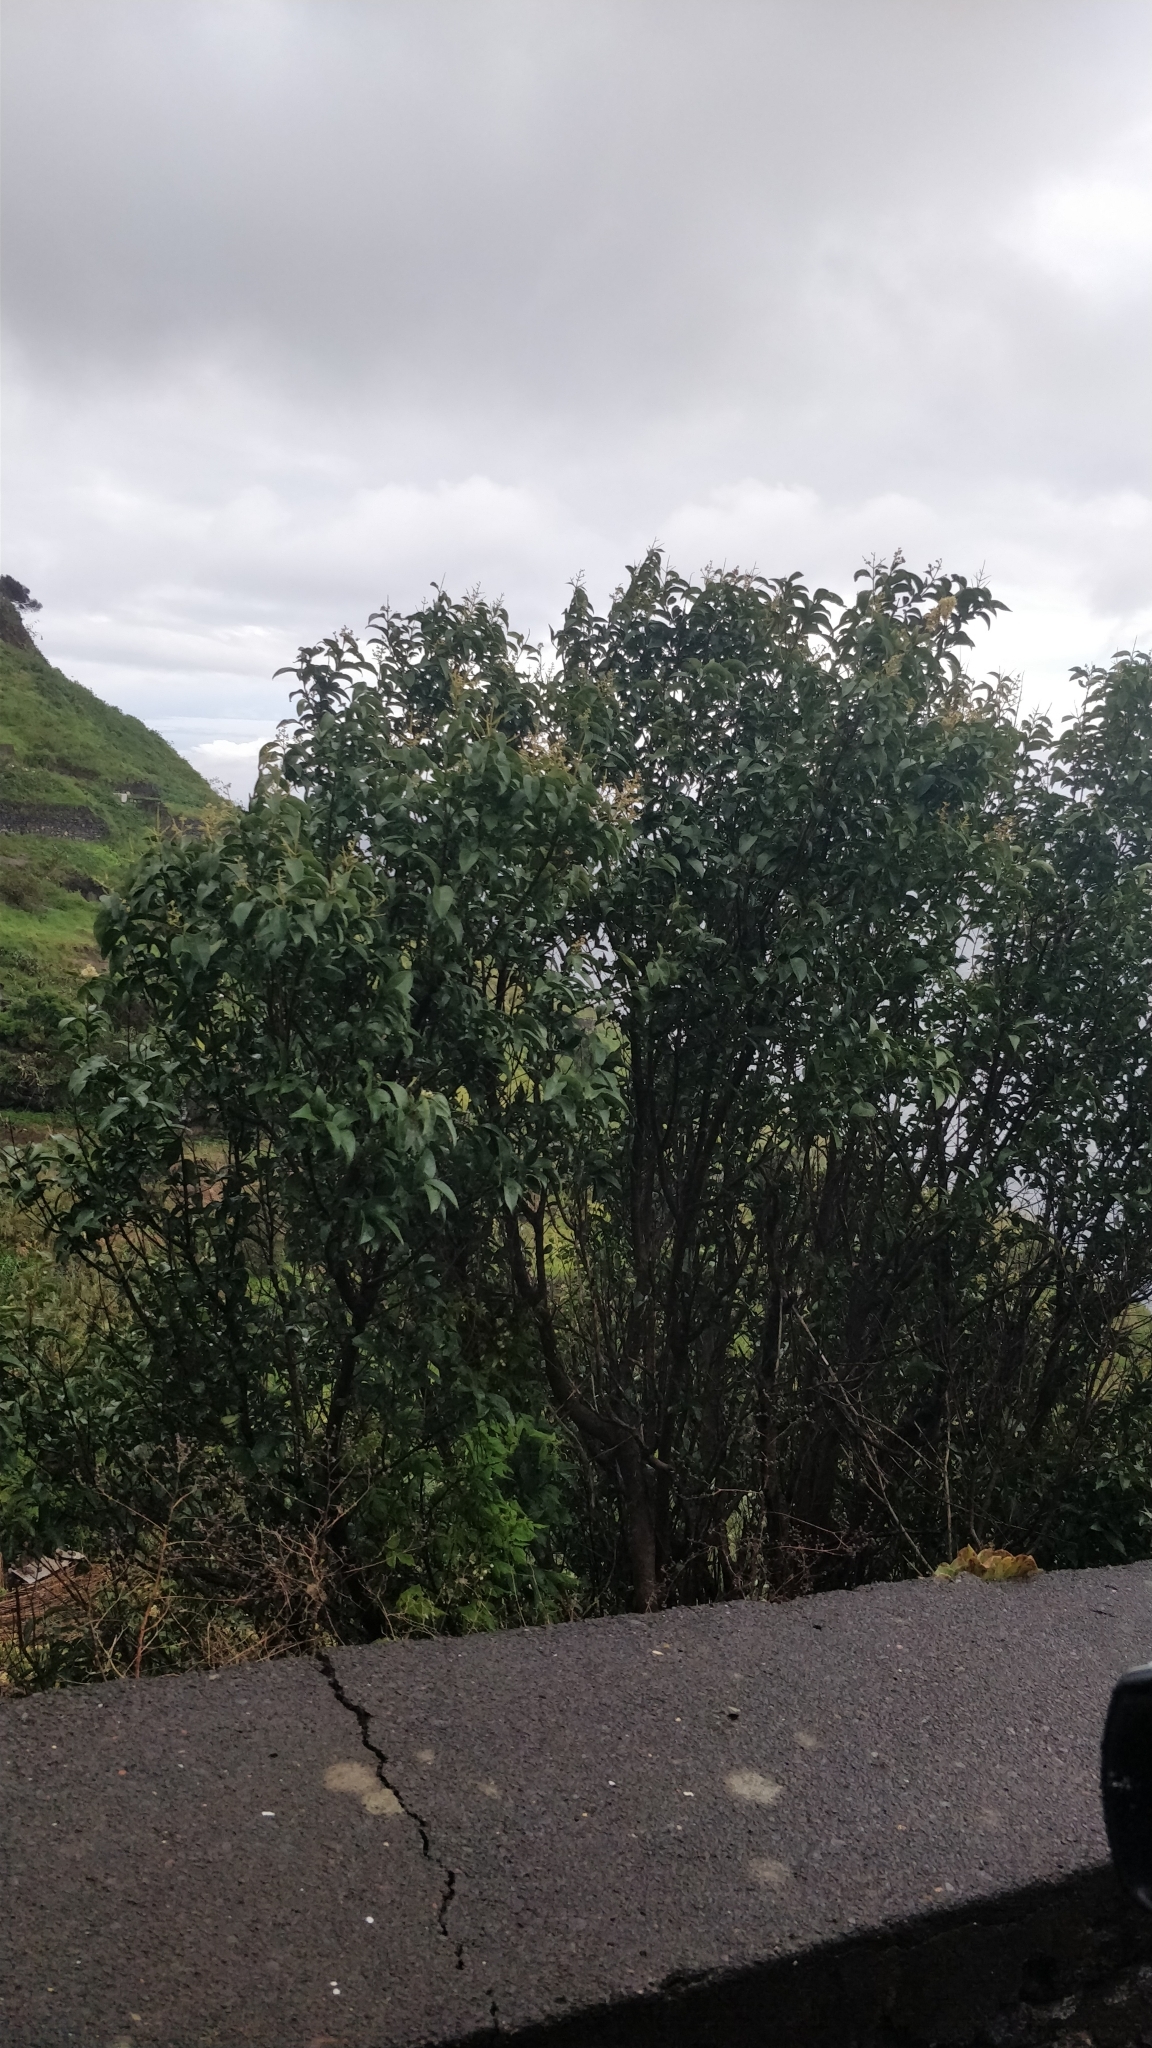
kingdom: Plantae
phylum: Tracheophyta
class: Magnoliopsida
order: Lamiales
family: Oleaceae
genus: Ligustrum
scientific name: Ligustrum lucidum
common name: Glossy privet
